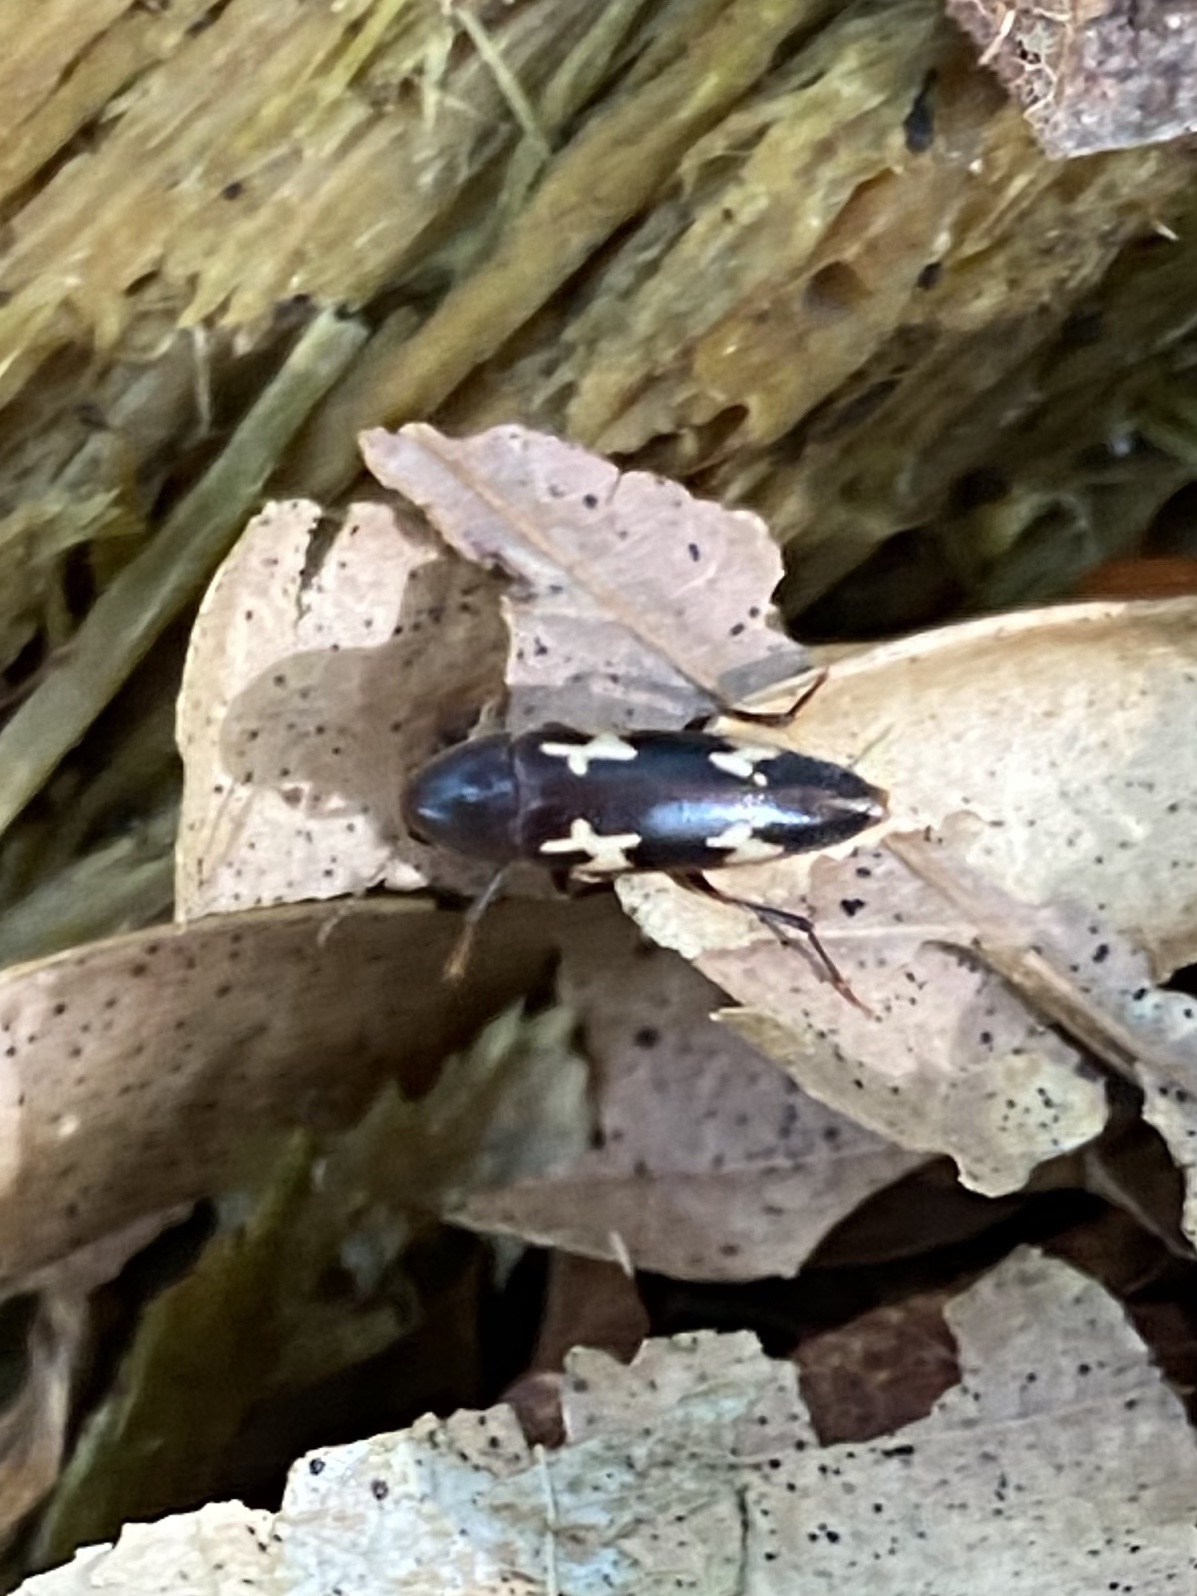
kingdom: Animalia
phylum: Arthropoda
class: Insecta
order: Coleoptera
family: Melandryidae
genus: Dircaea
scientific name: Dircaea liturata
